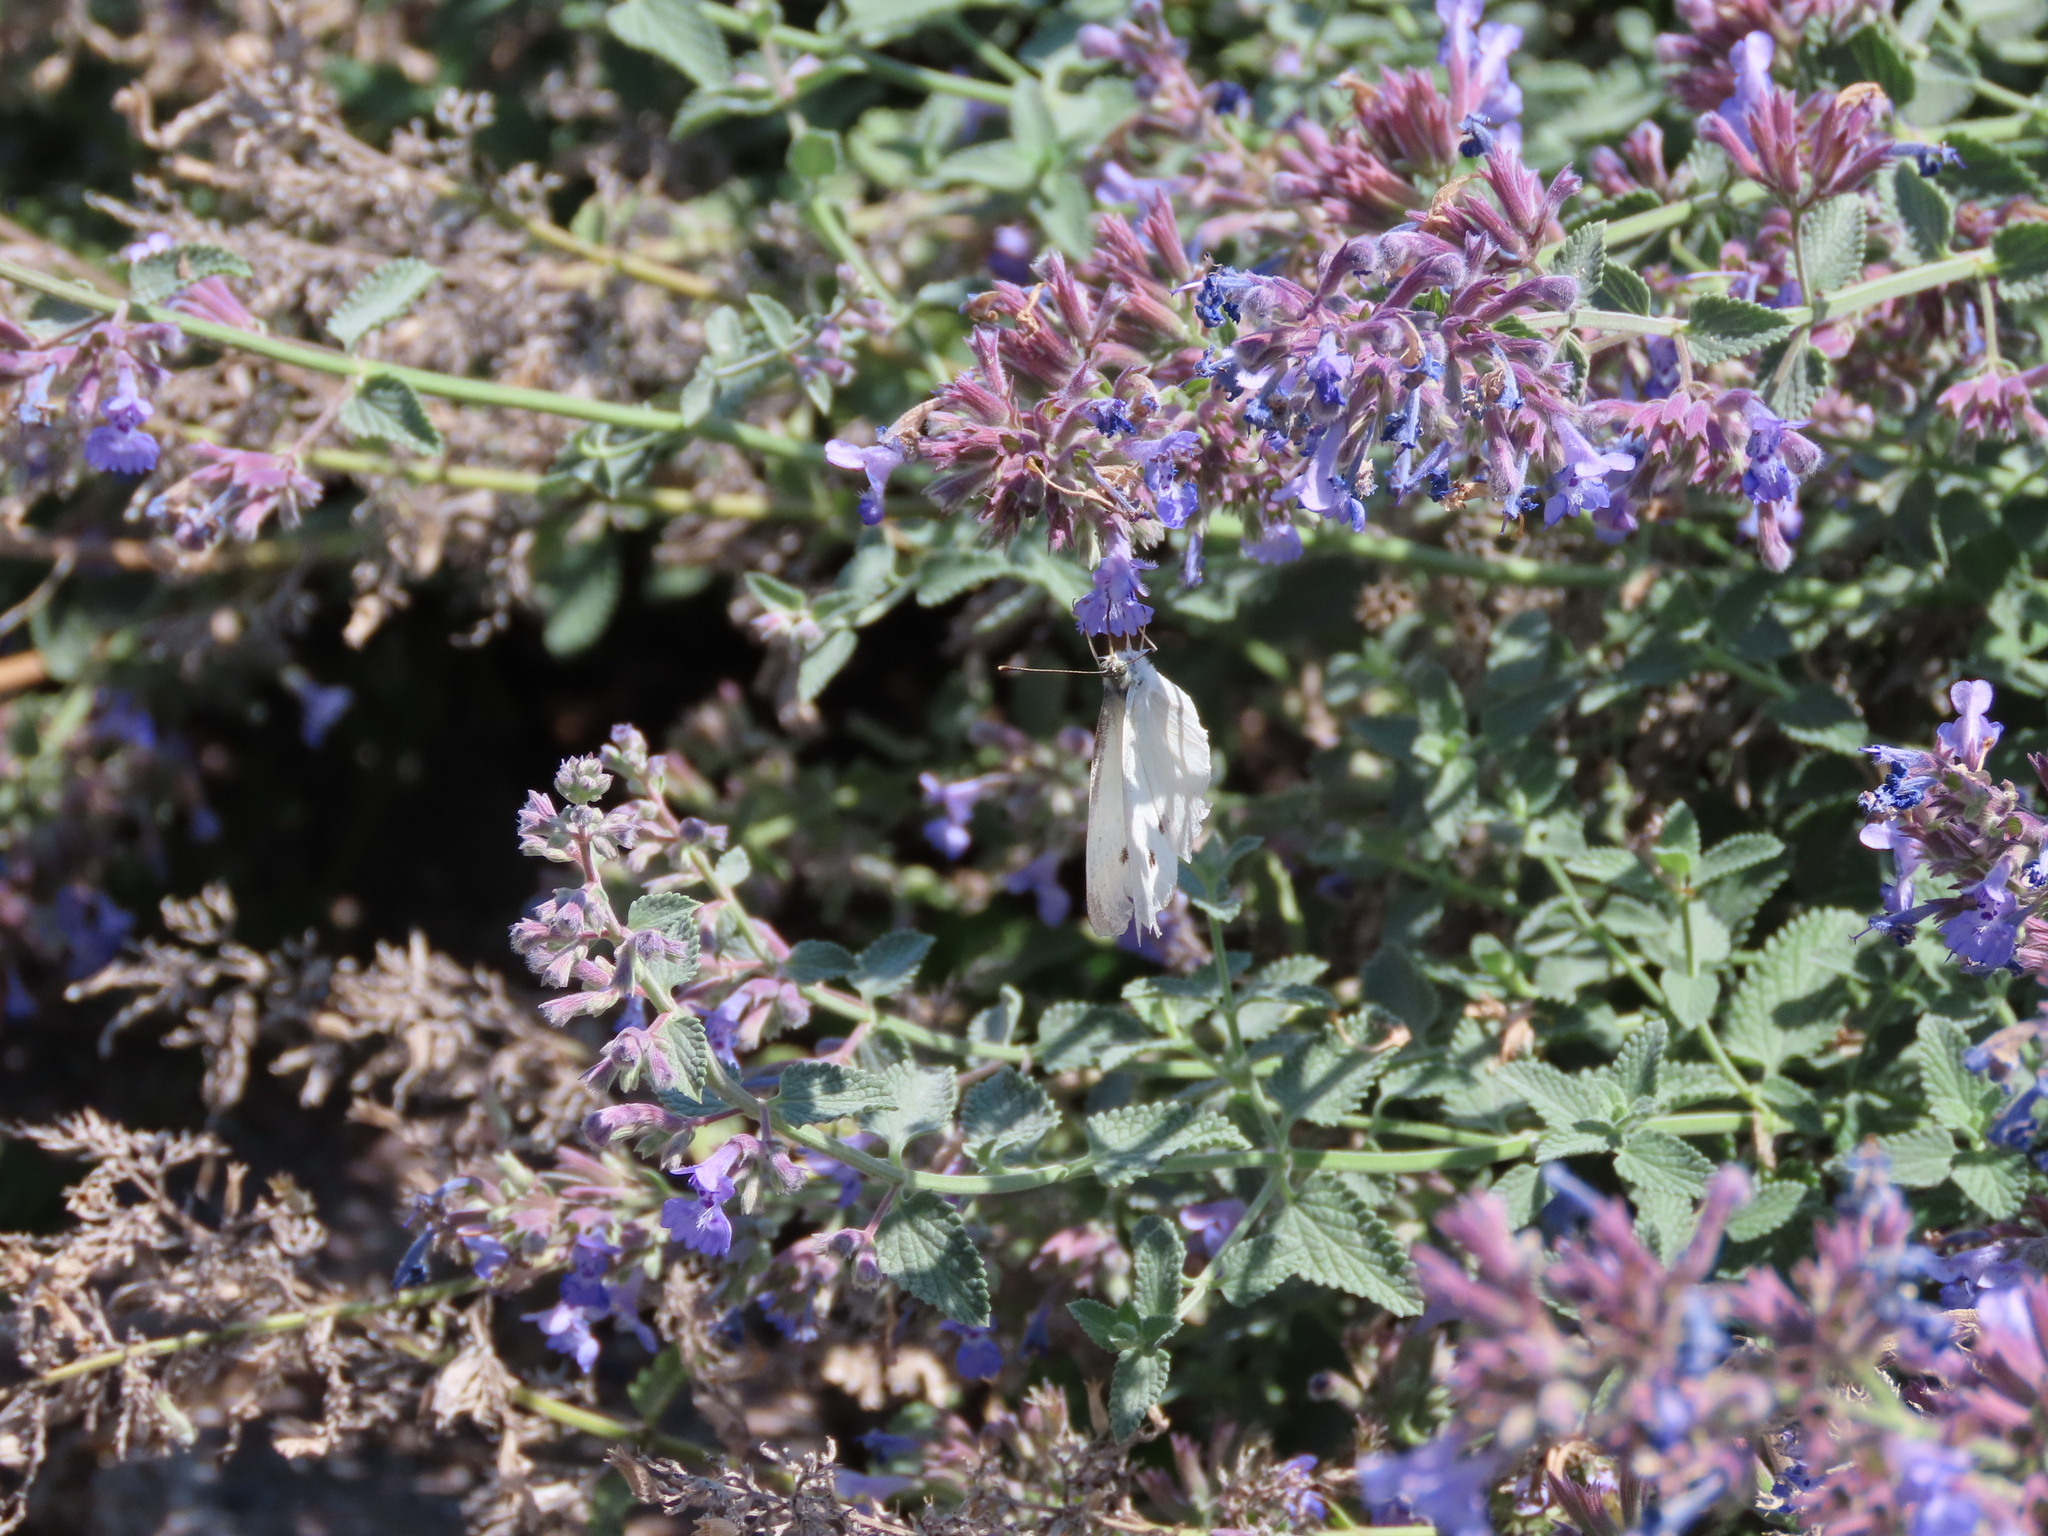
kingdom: Animalia
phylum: Arthropoda
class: Insecta
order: Lepidoptera
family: Pieridae
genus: Pieris
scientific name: Pieris rapae
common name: Small white
